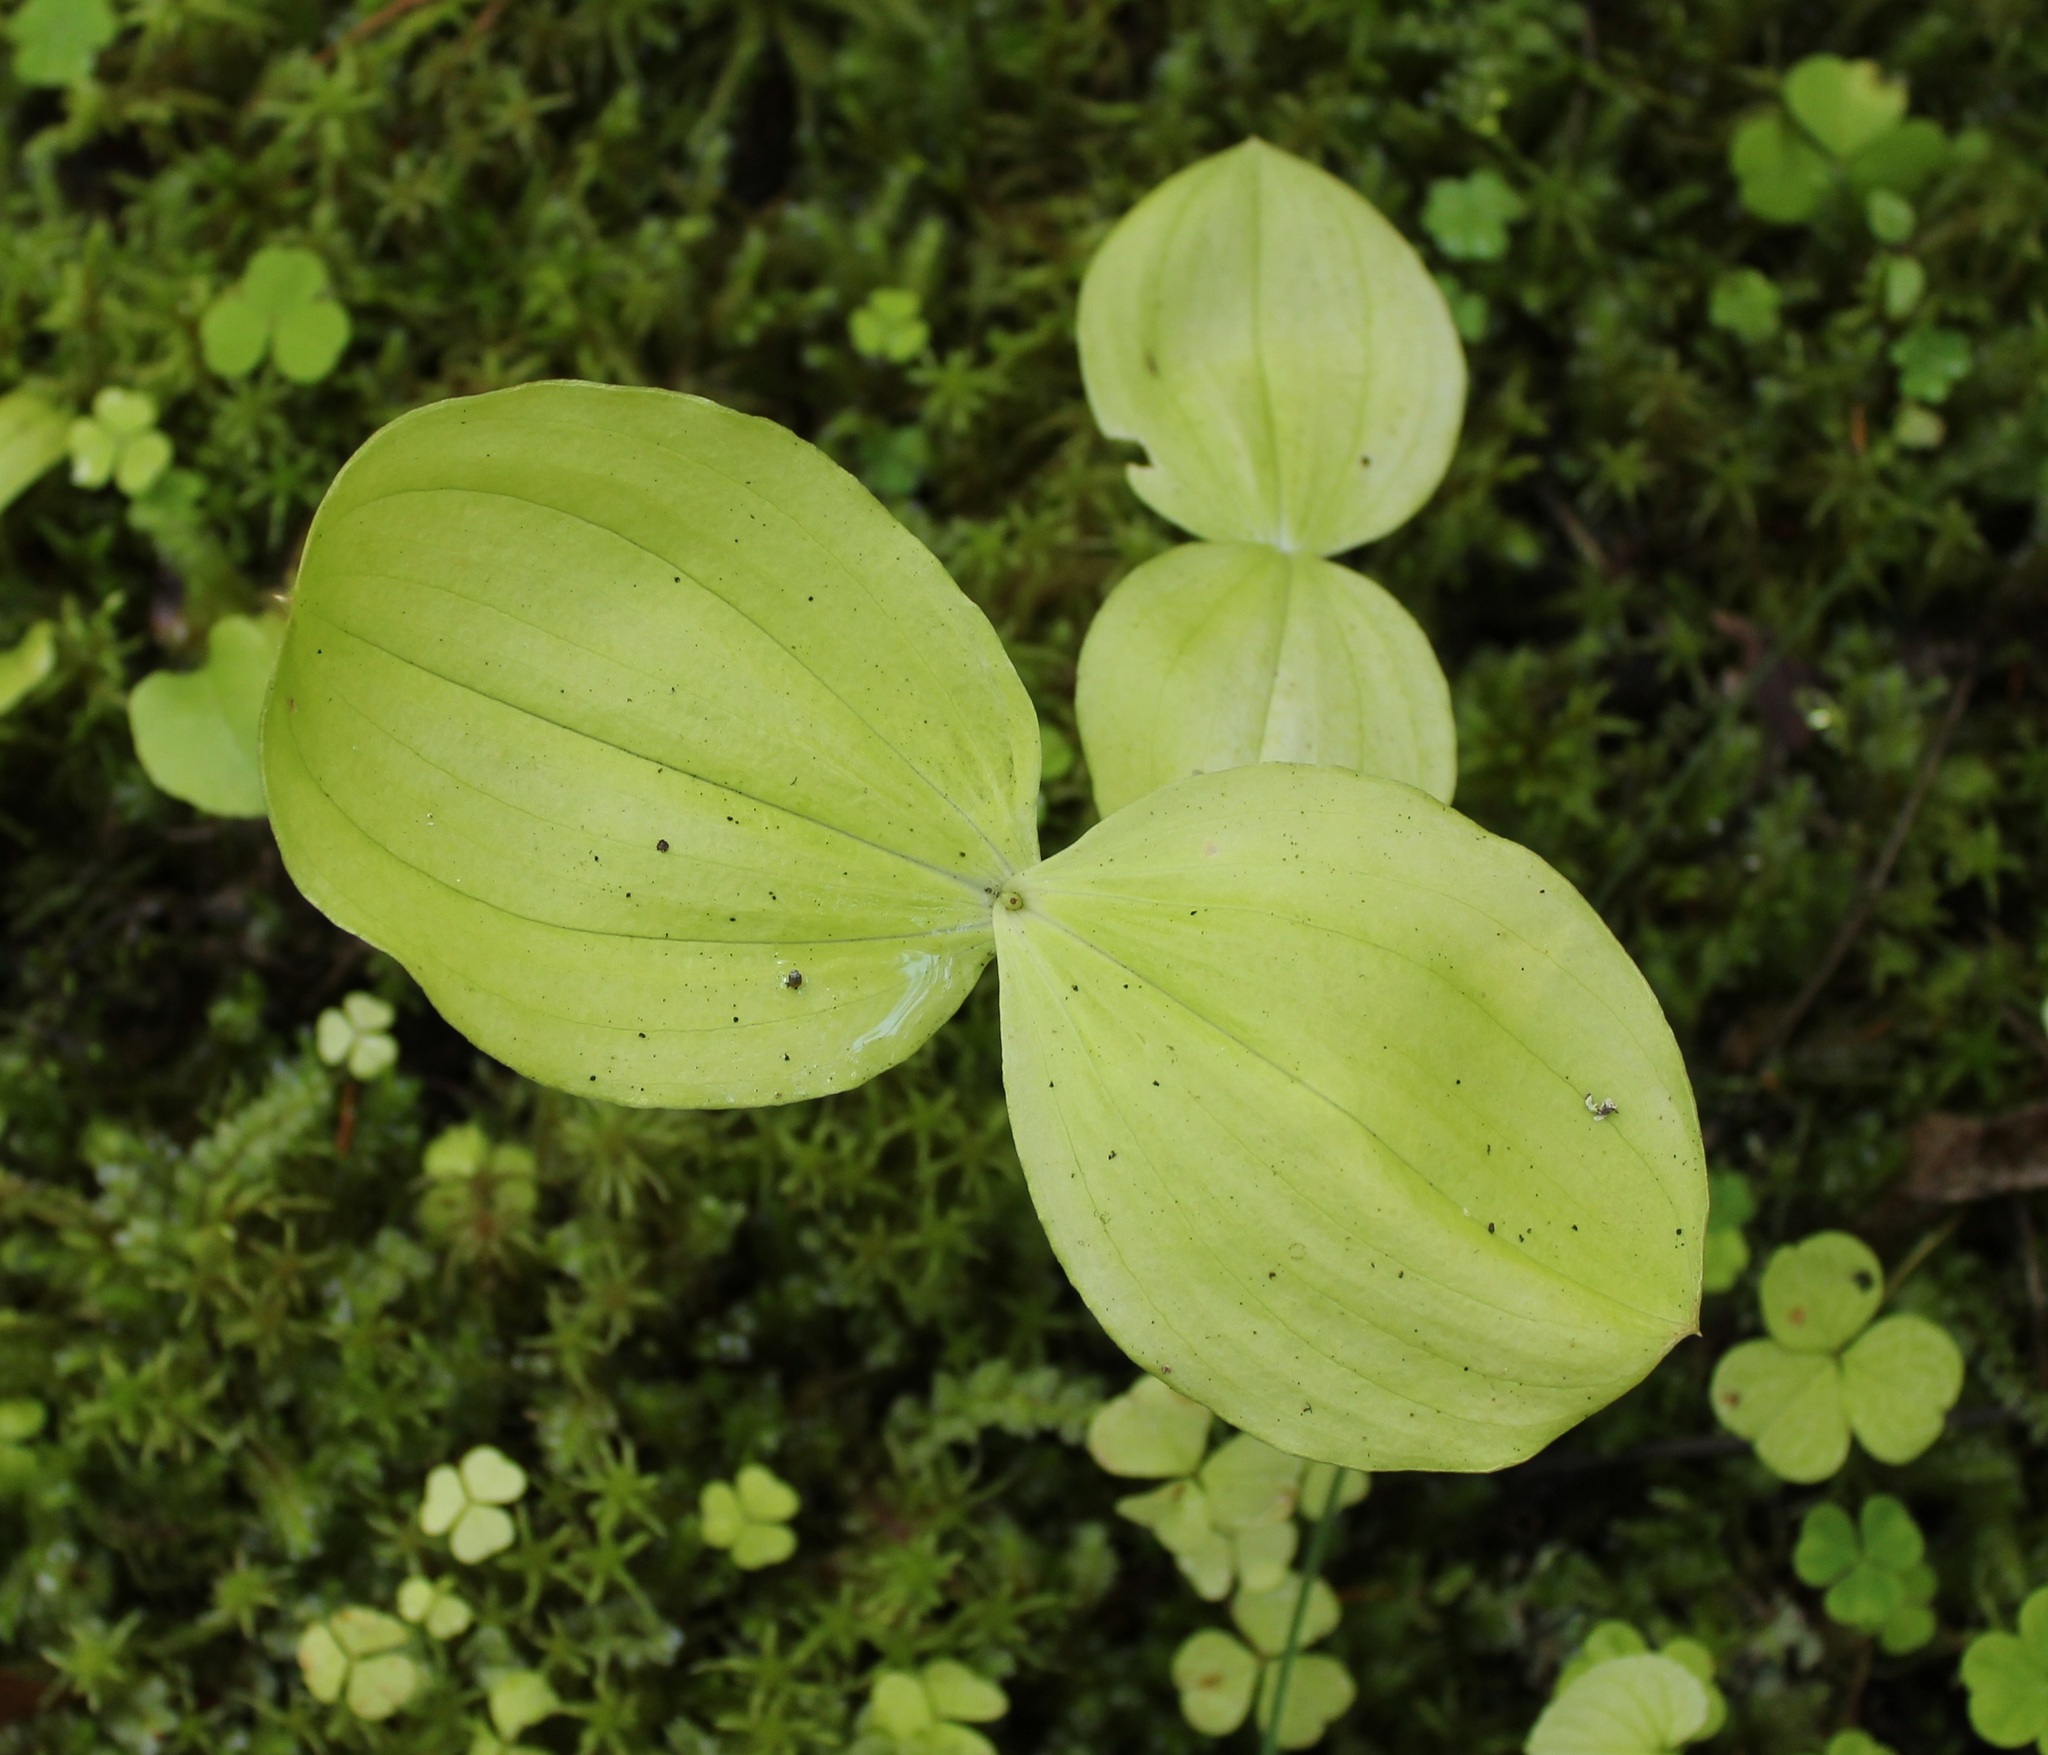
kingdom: Plantae
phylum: Tracheophyta
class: Liliopsida
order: Asparagales
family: Orchidaceae
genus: Neottia
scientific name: Neottia ovata
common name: Common twayblade
